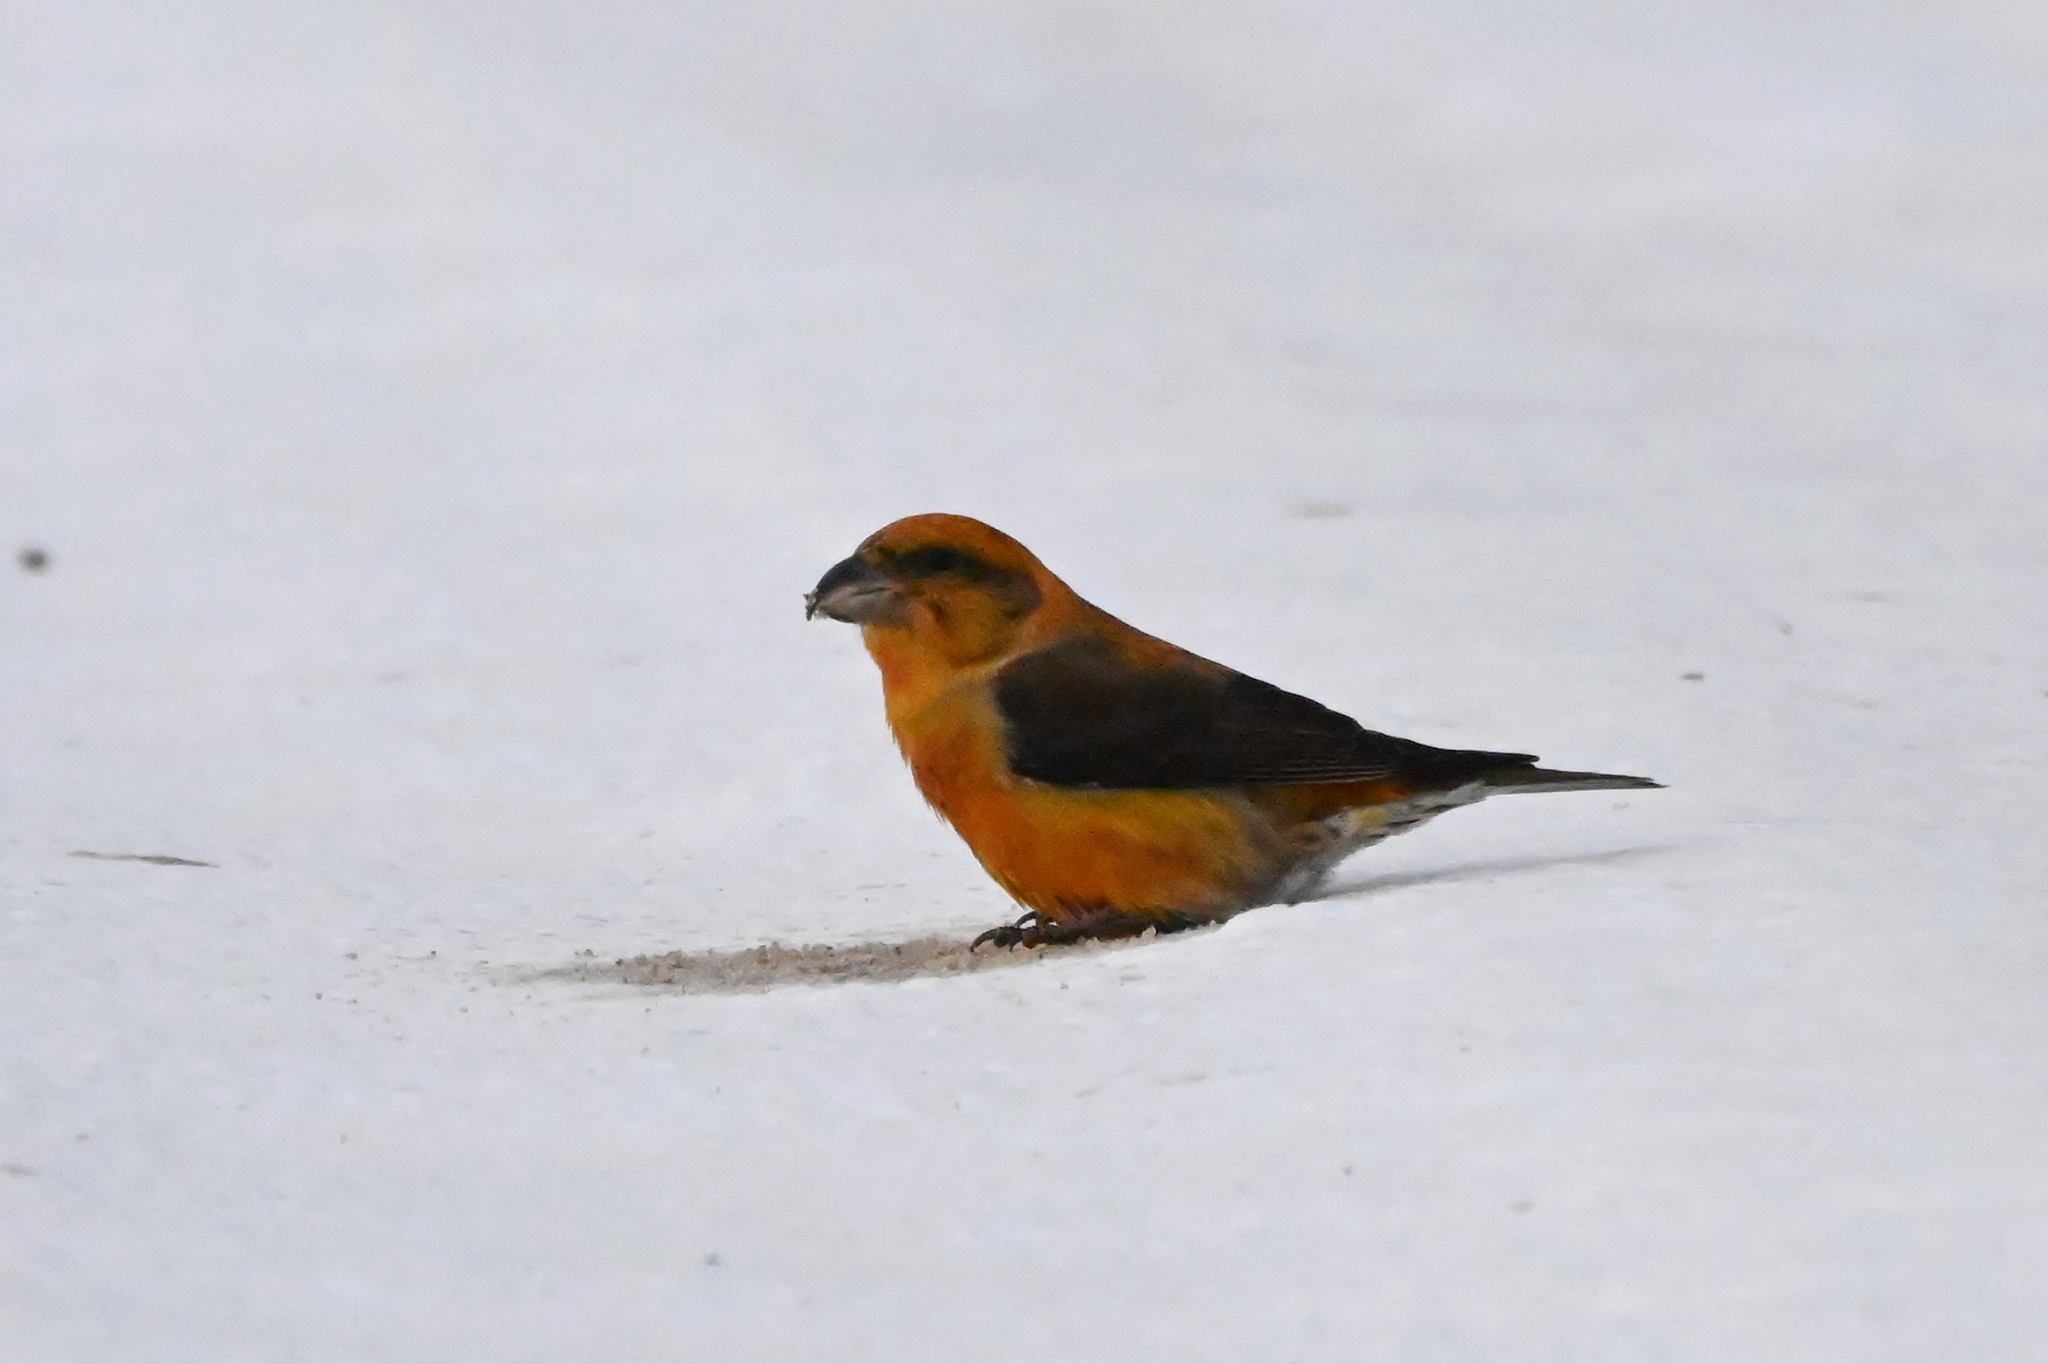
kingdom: Animalia
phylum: Chordata
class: Aves
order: Passeriformes
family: Fringillidae
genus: Loxia
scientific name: Loxia curvirostra
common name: Red crossbill
